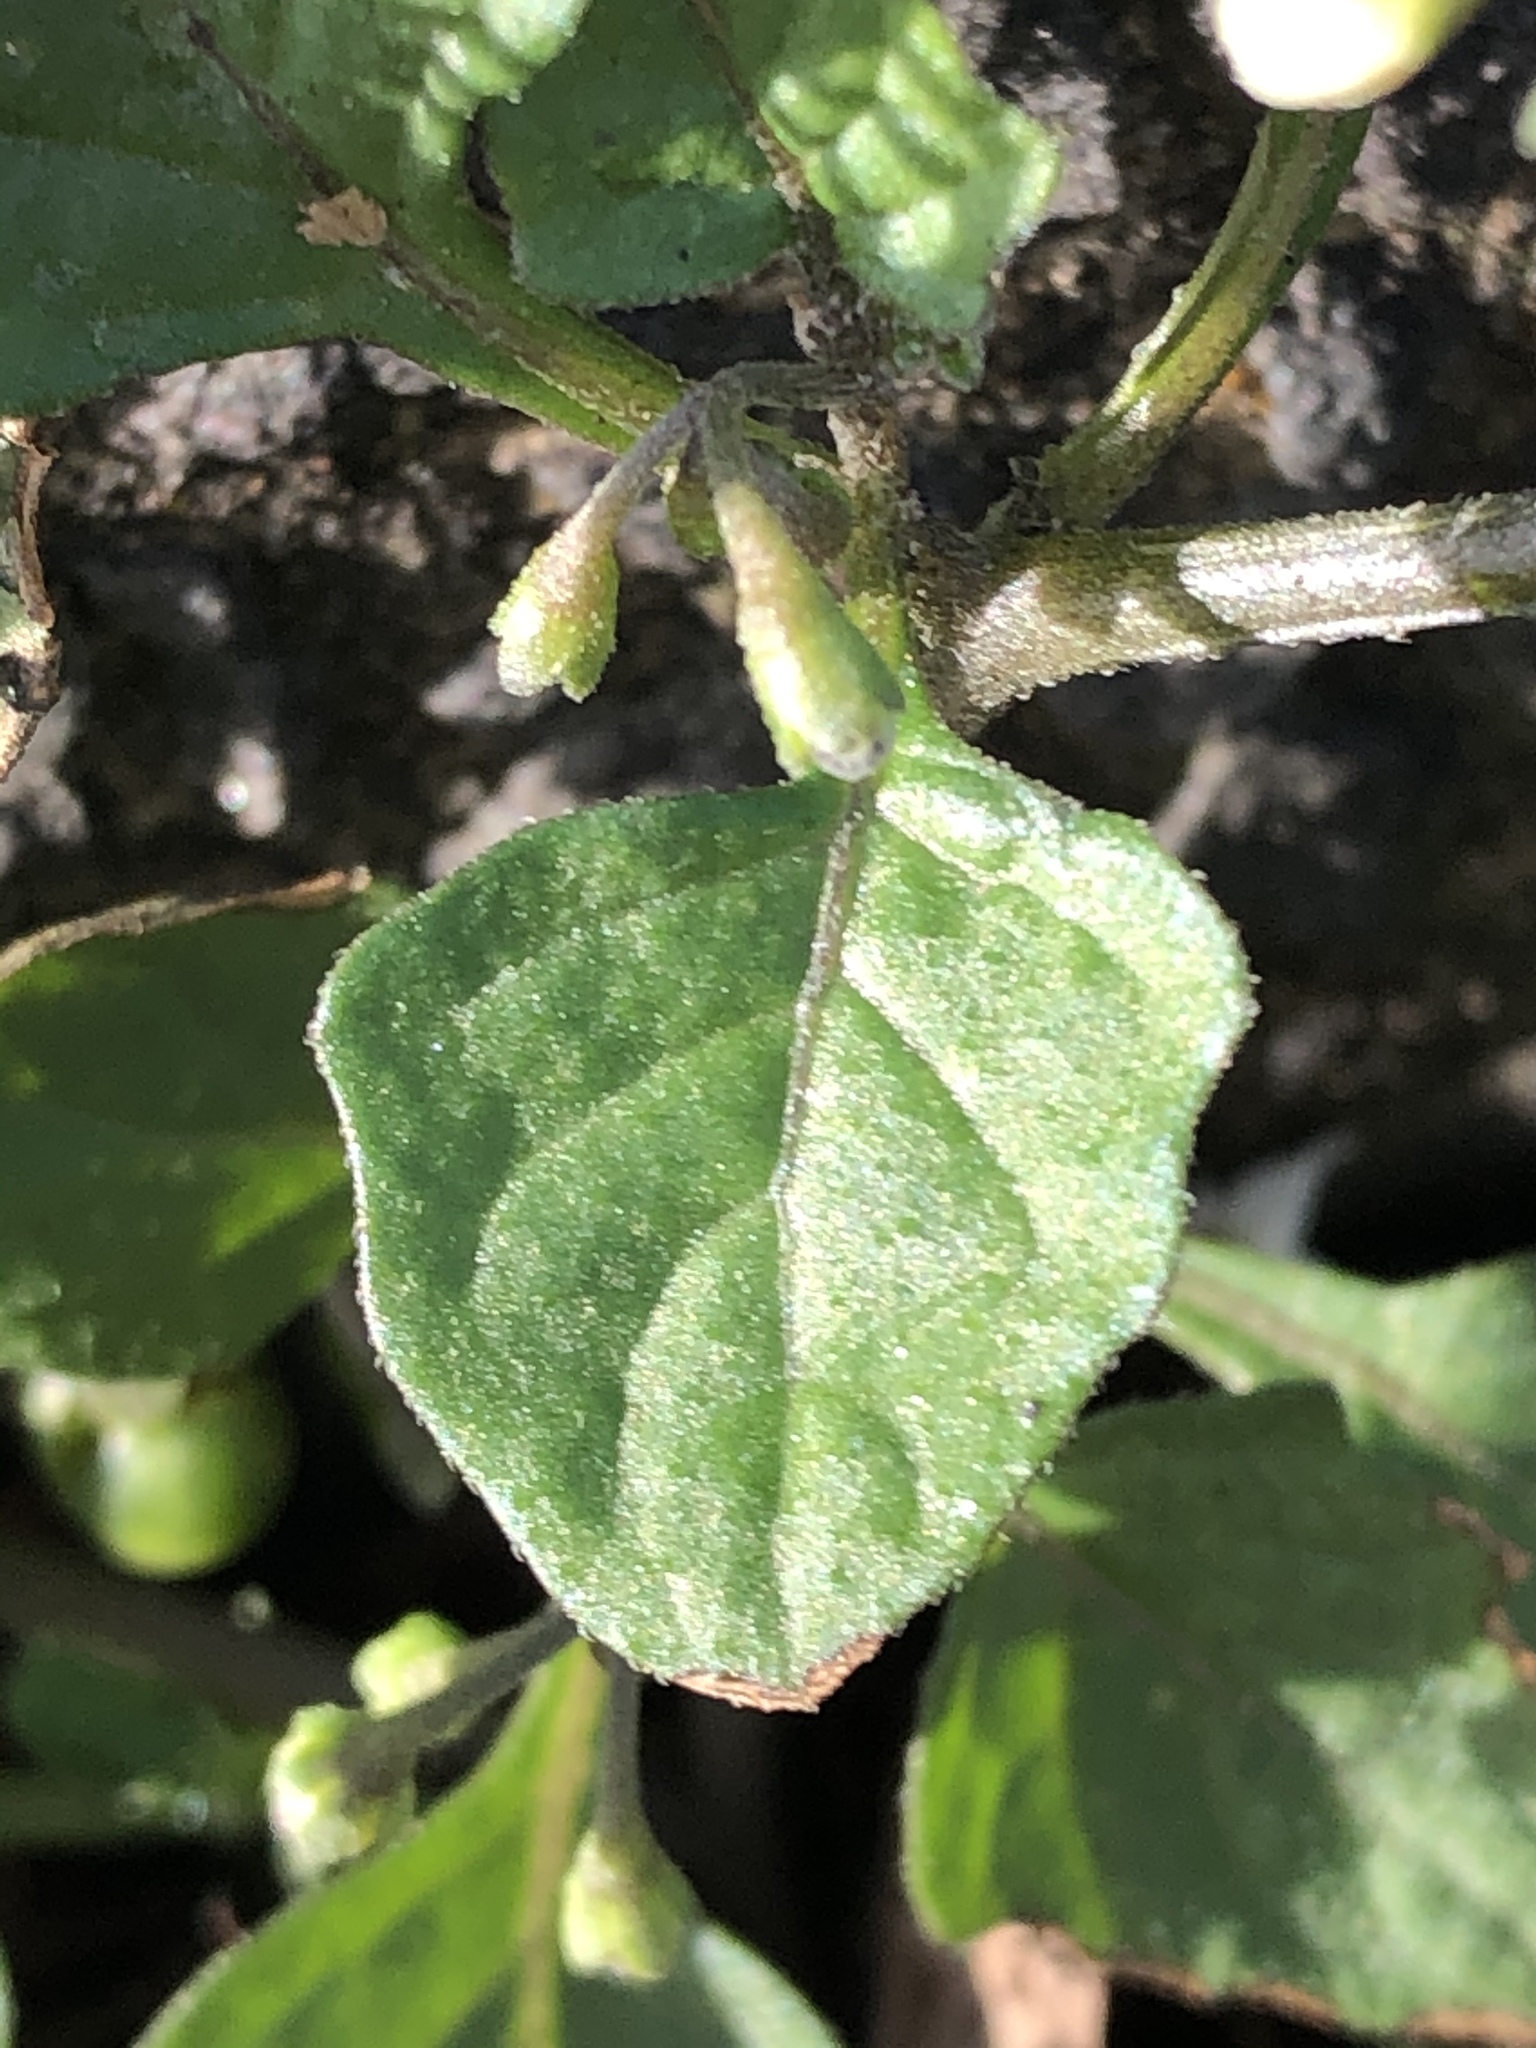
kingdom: Plantae
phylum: Tracheophyta
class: Magnoliopsida
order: Solanales
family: Solanaceae
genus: Solanum
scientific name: Solanum nigrum
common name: Black nightshade
